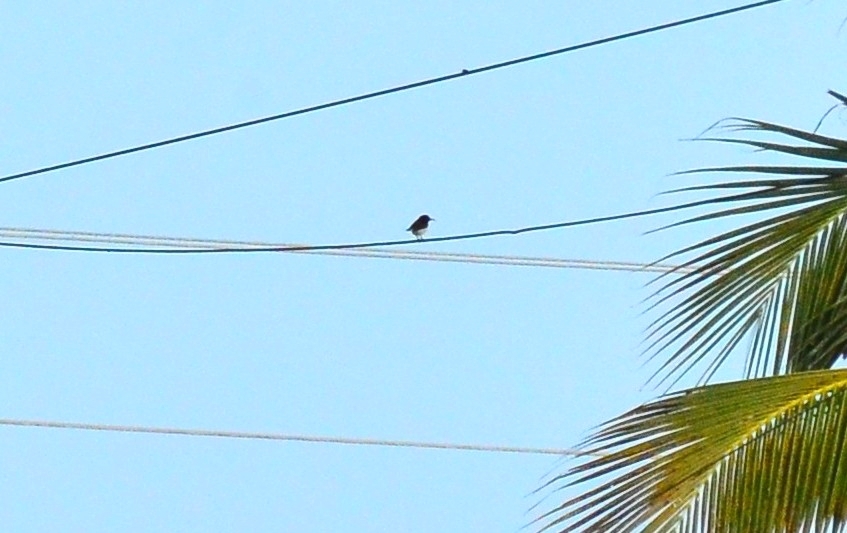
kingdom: Animalia
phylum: Chordata
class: Aves
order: Passeriformes
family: Nectariniidae
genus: Leptocoma
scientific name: Leptocoma zeylonica
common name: Purple-rumped sunbird
